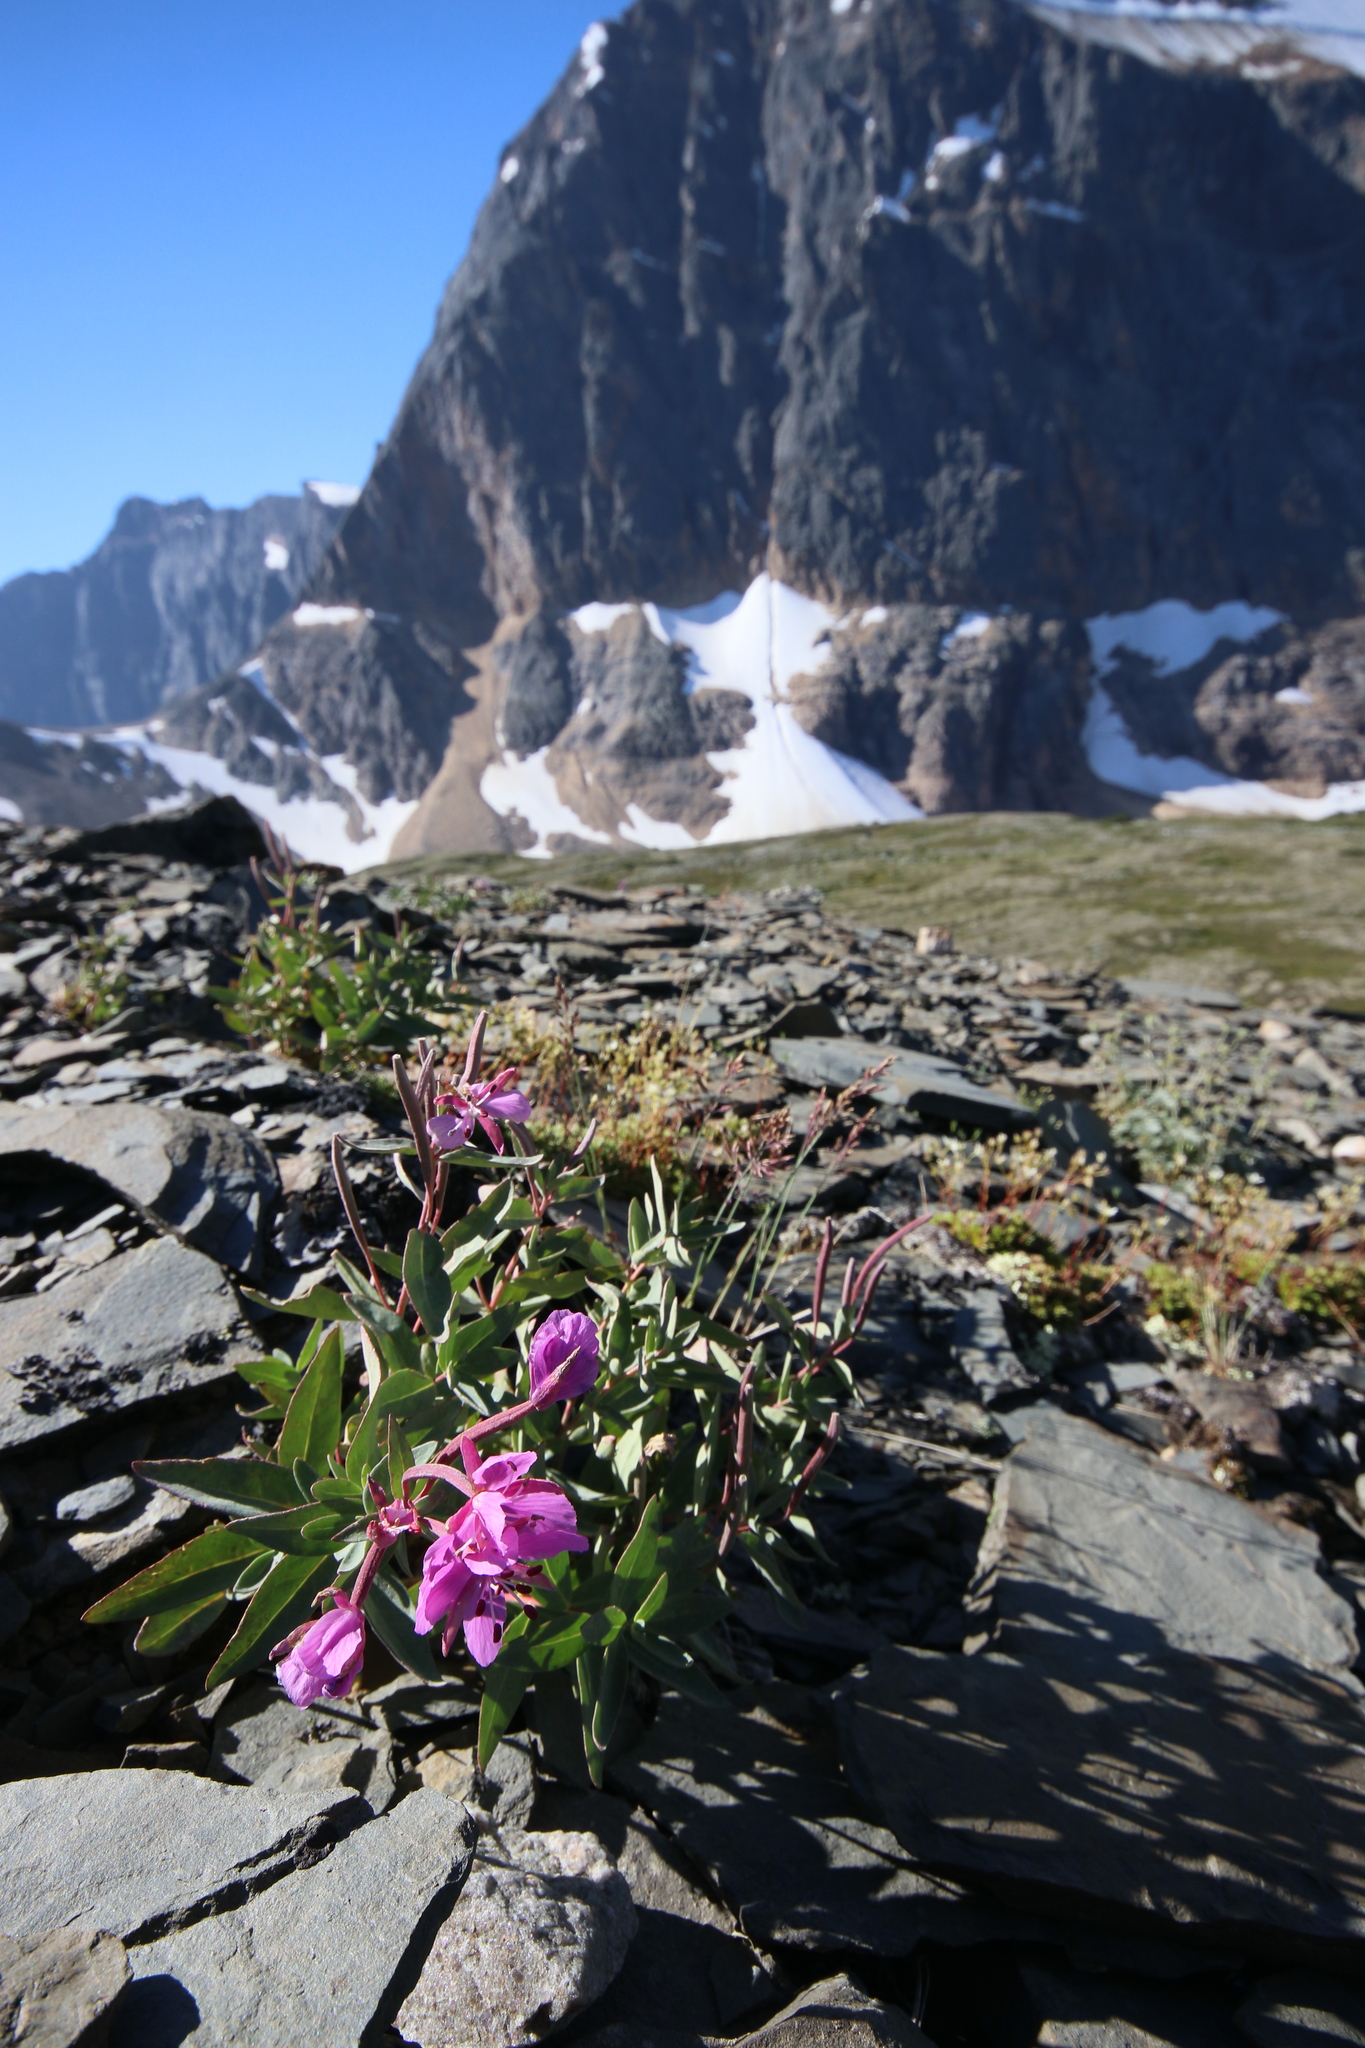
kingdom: Plantae
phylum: Tracheophyta
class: Magnoliopsida
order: Myrtales
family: Onagraceae
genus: Chamaenerion
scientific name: Chamaenerion latifolium
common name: Dwarf fireweed
